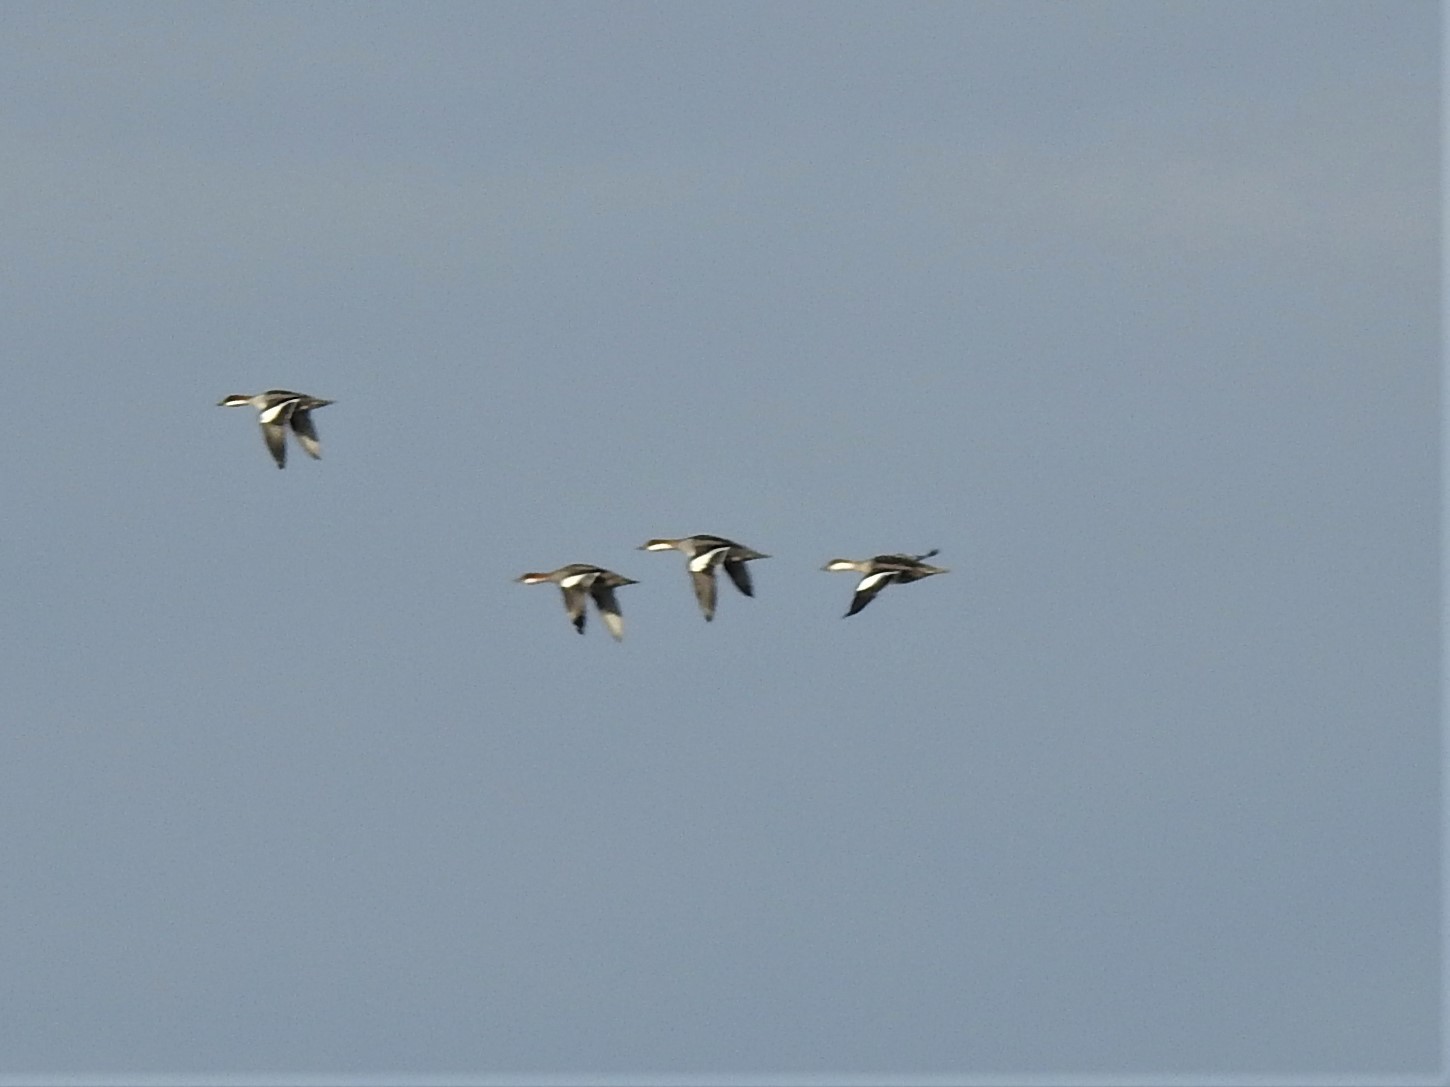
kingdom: Animalia
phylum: Chordata
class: Aves
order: Anseriformes
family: Anatidae
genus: Mergellus
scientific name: Mergellus albellus
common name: Smew
